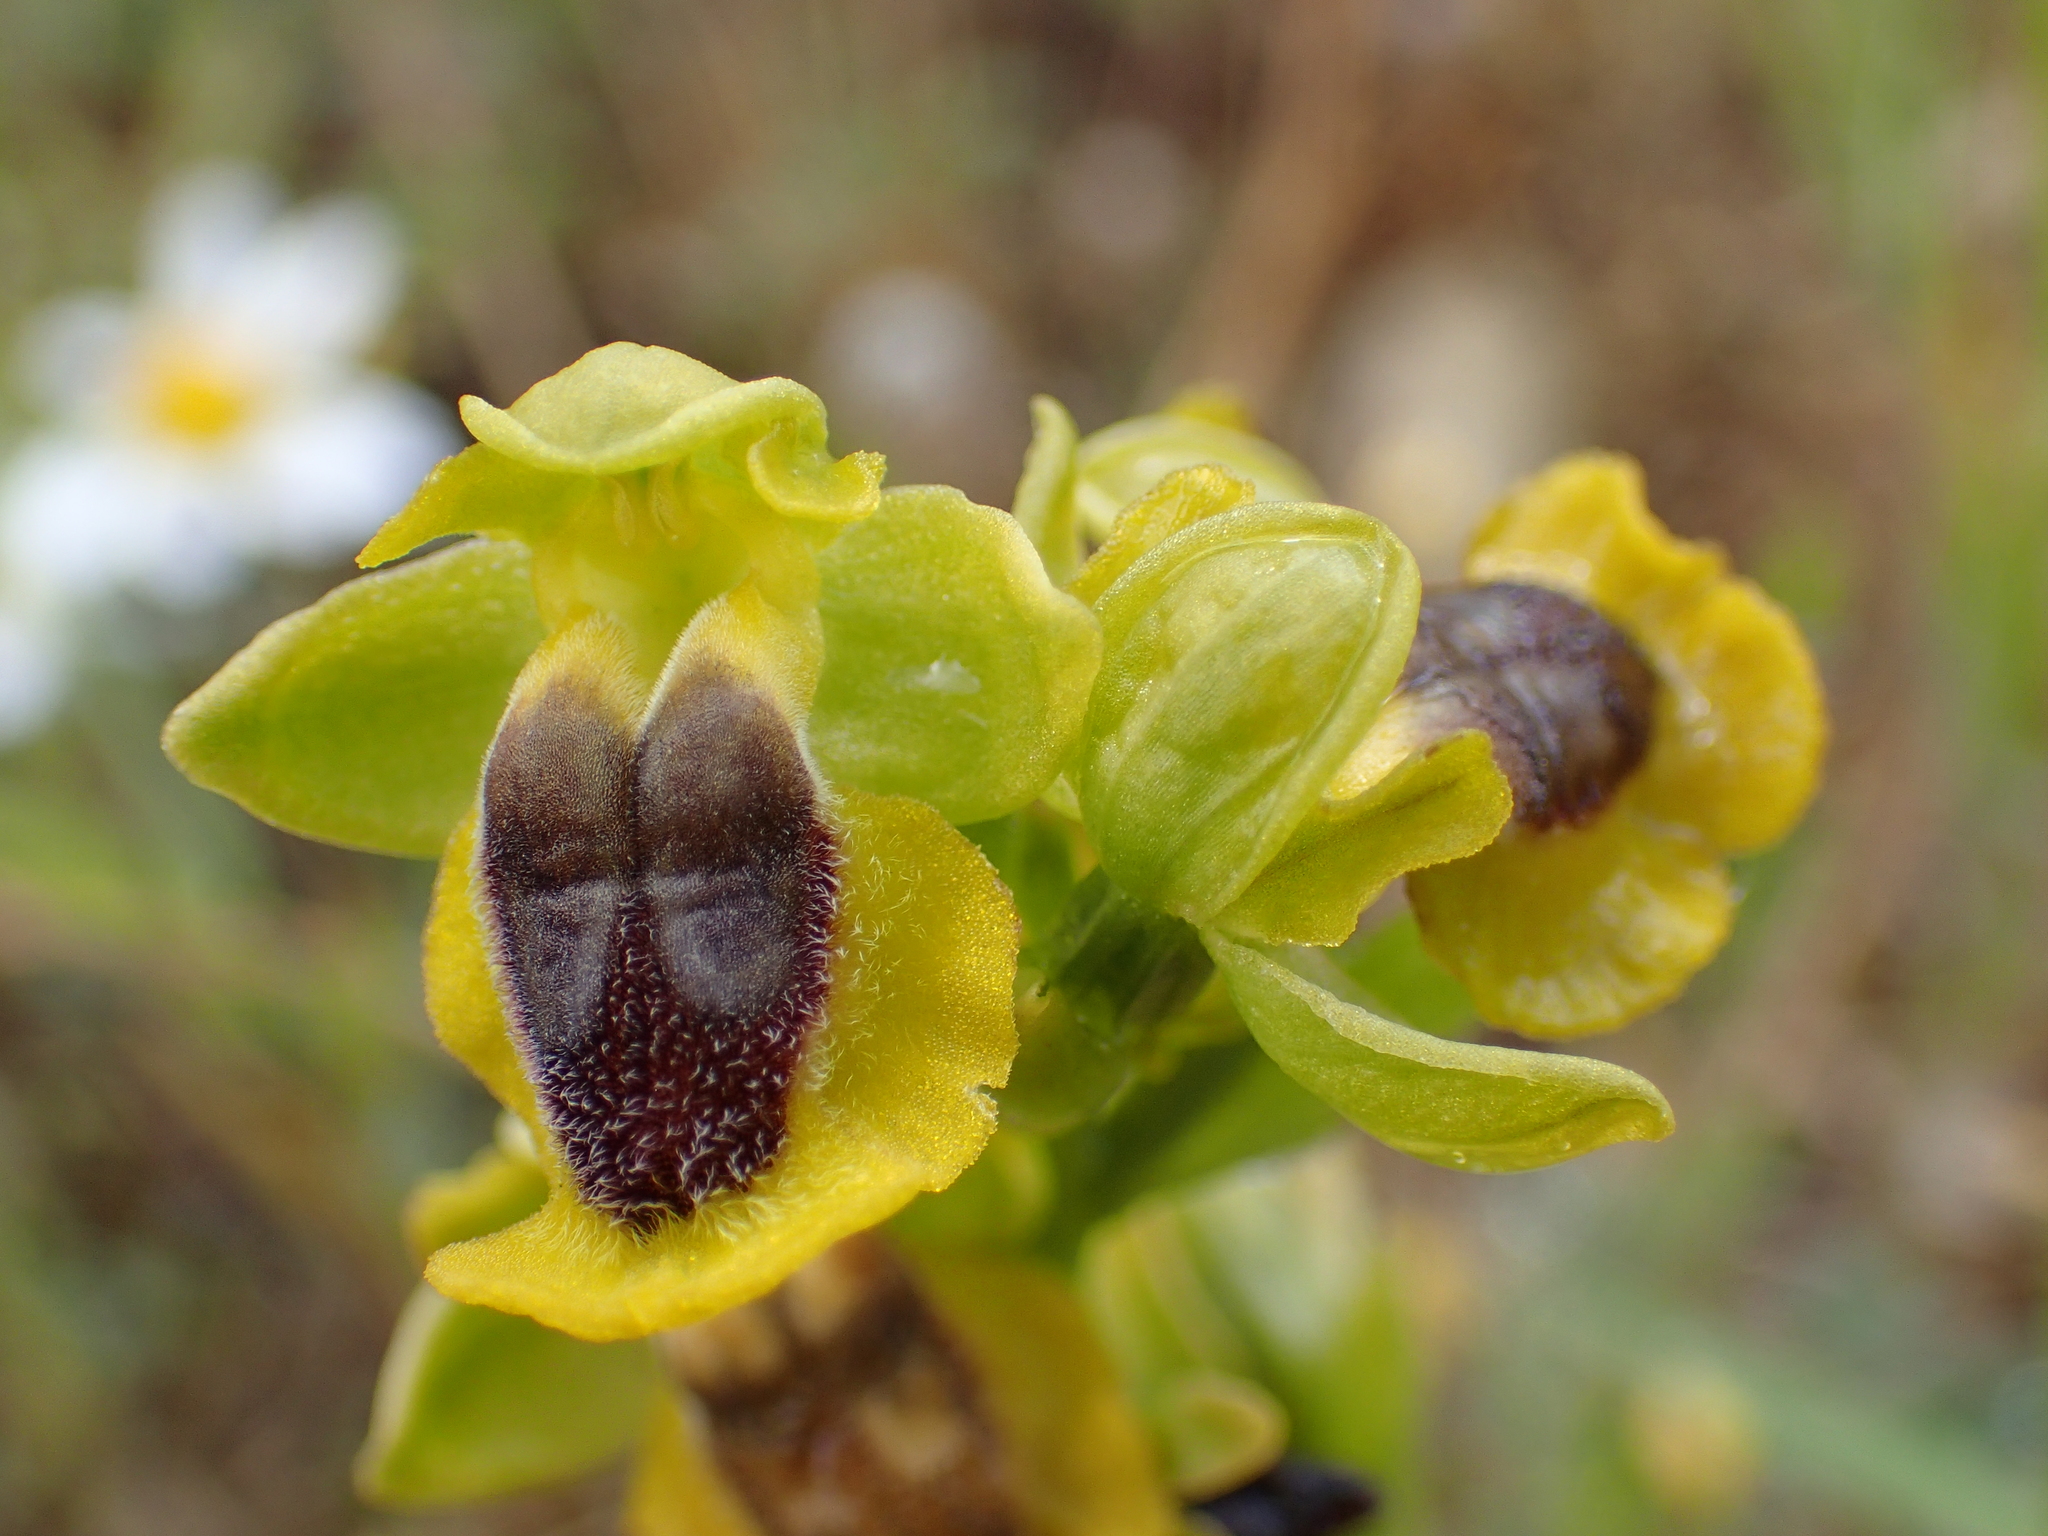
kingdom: Plantae
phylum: Tracheophyta
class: Liliopsida
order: Asparagales
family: Orchidaceae
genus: Ophrys
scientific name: Ophrys lutea
